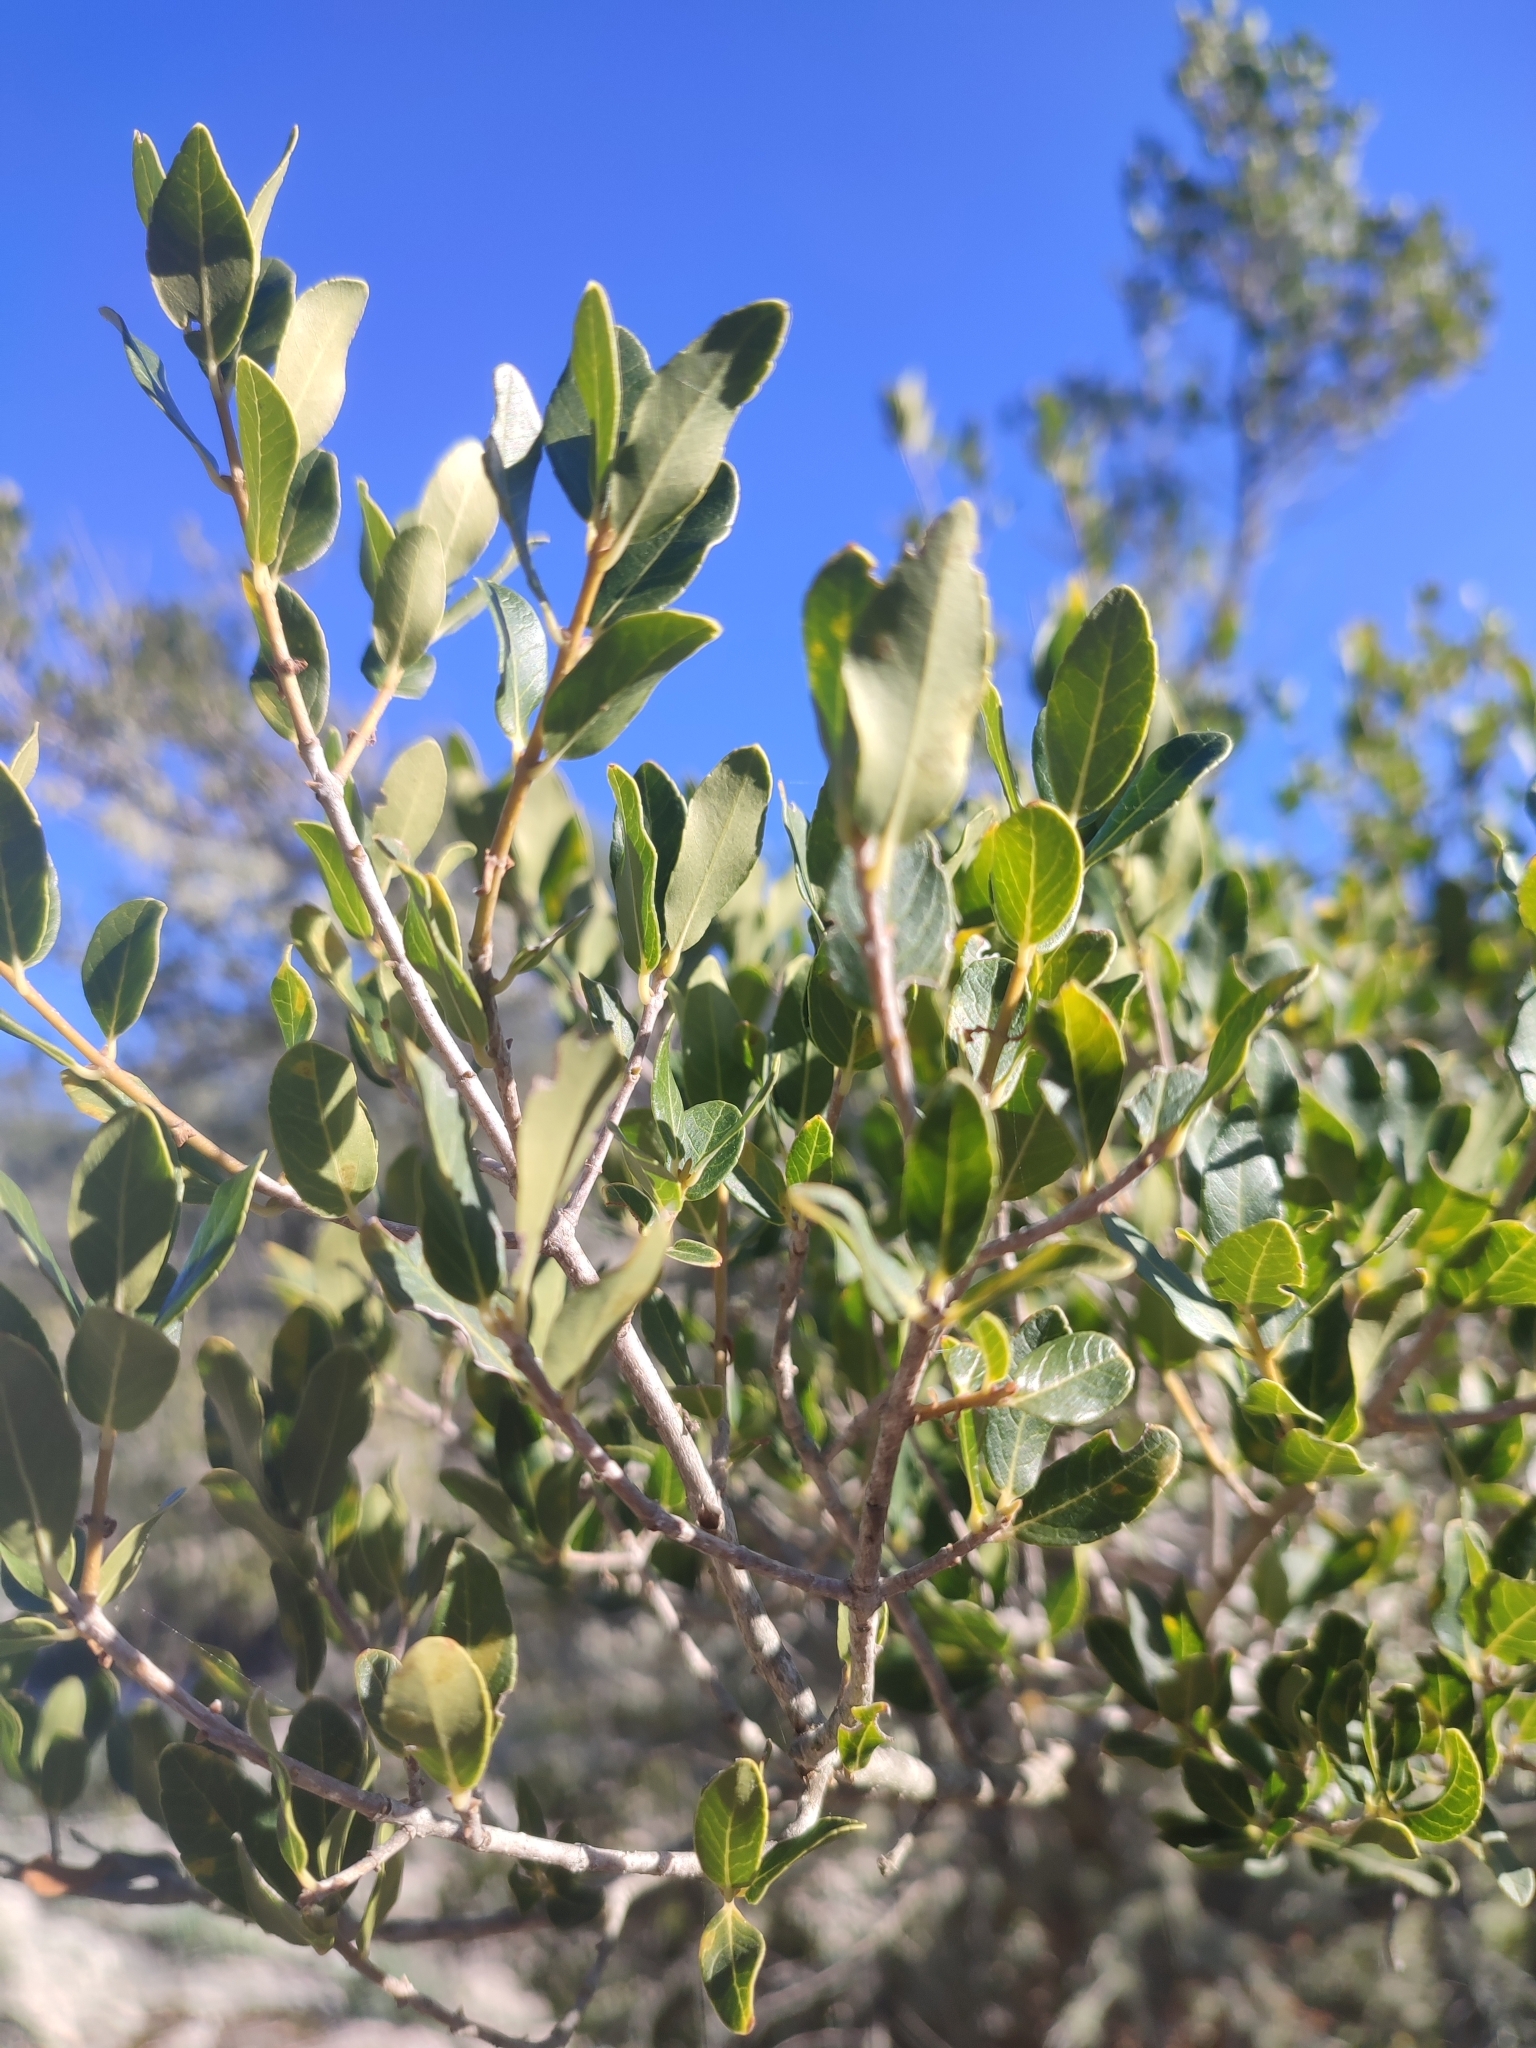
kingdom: Plantae
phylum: Tracheophyta
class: Magnoliopsida
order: Lamiales
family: Oleaceae
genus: Phillyrea
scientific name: Phillyrea latifolia
